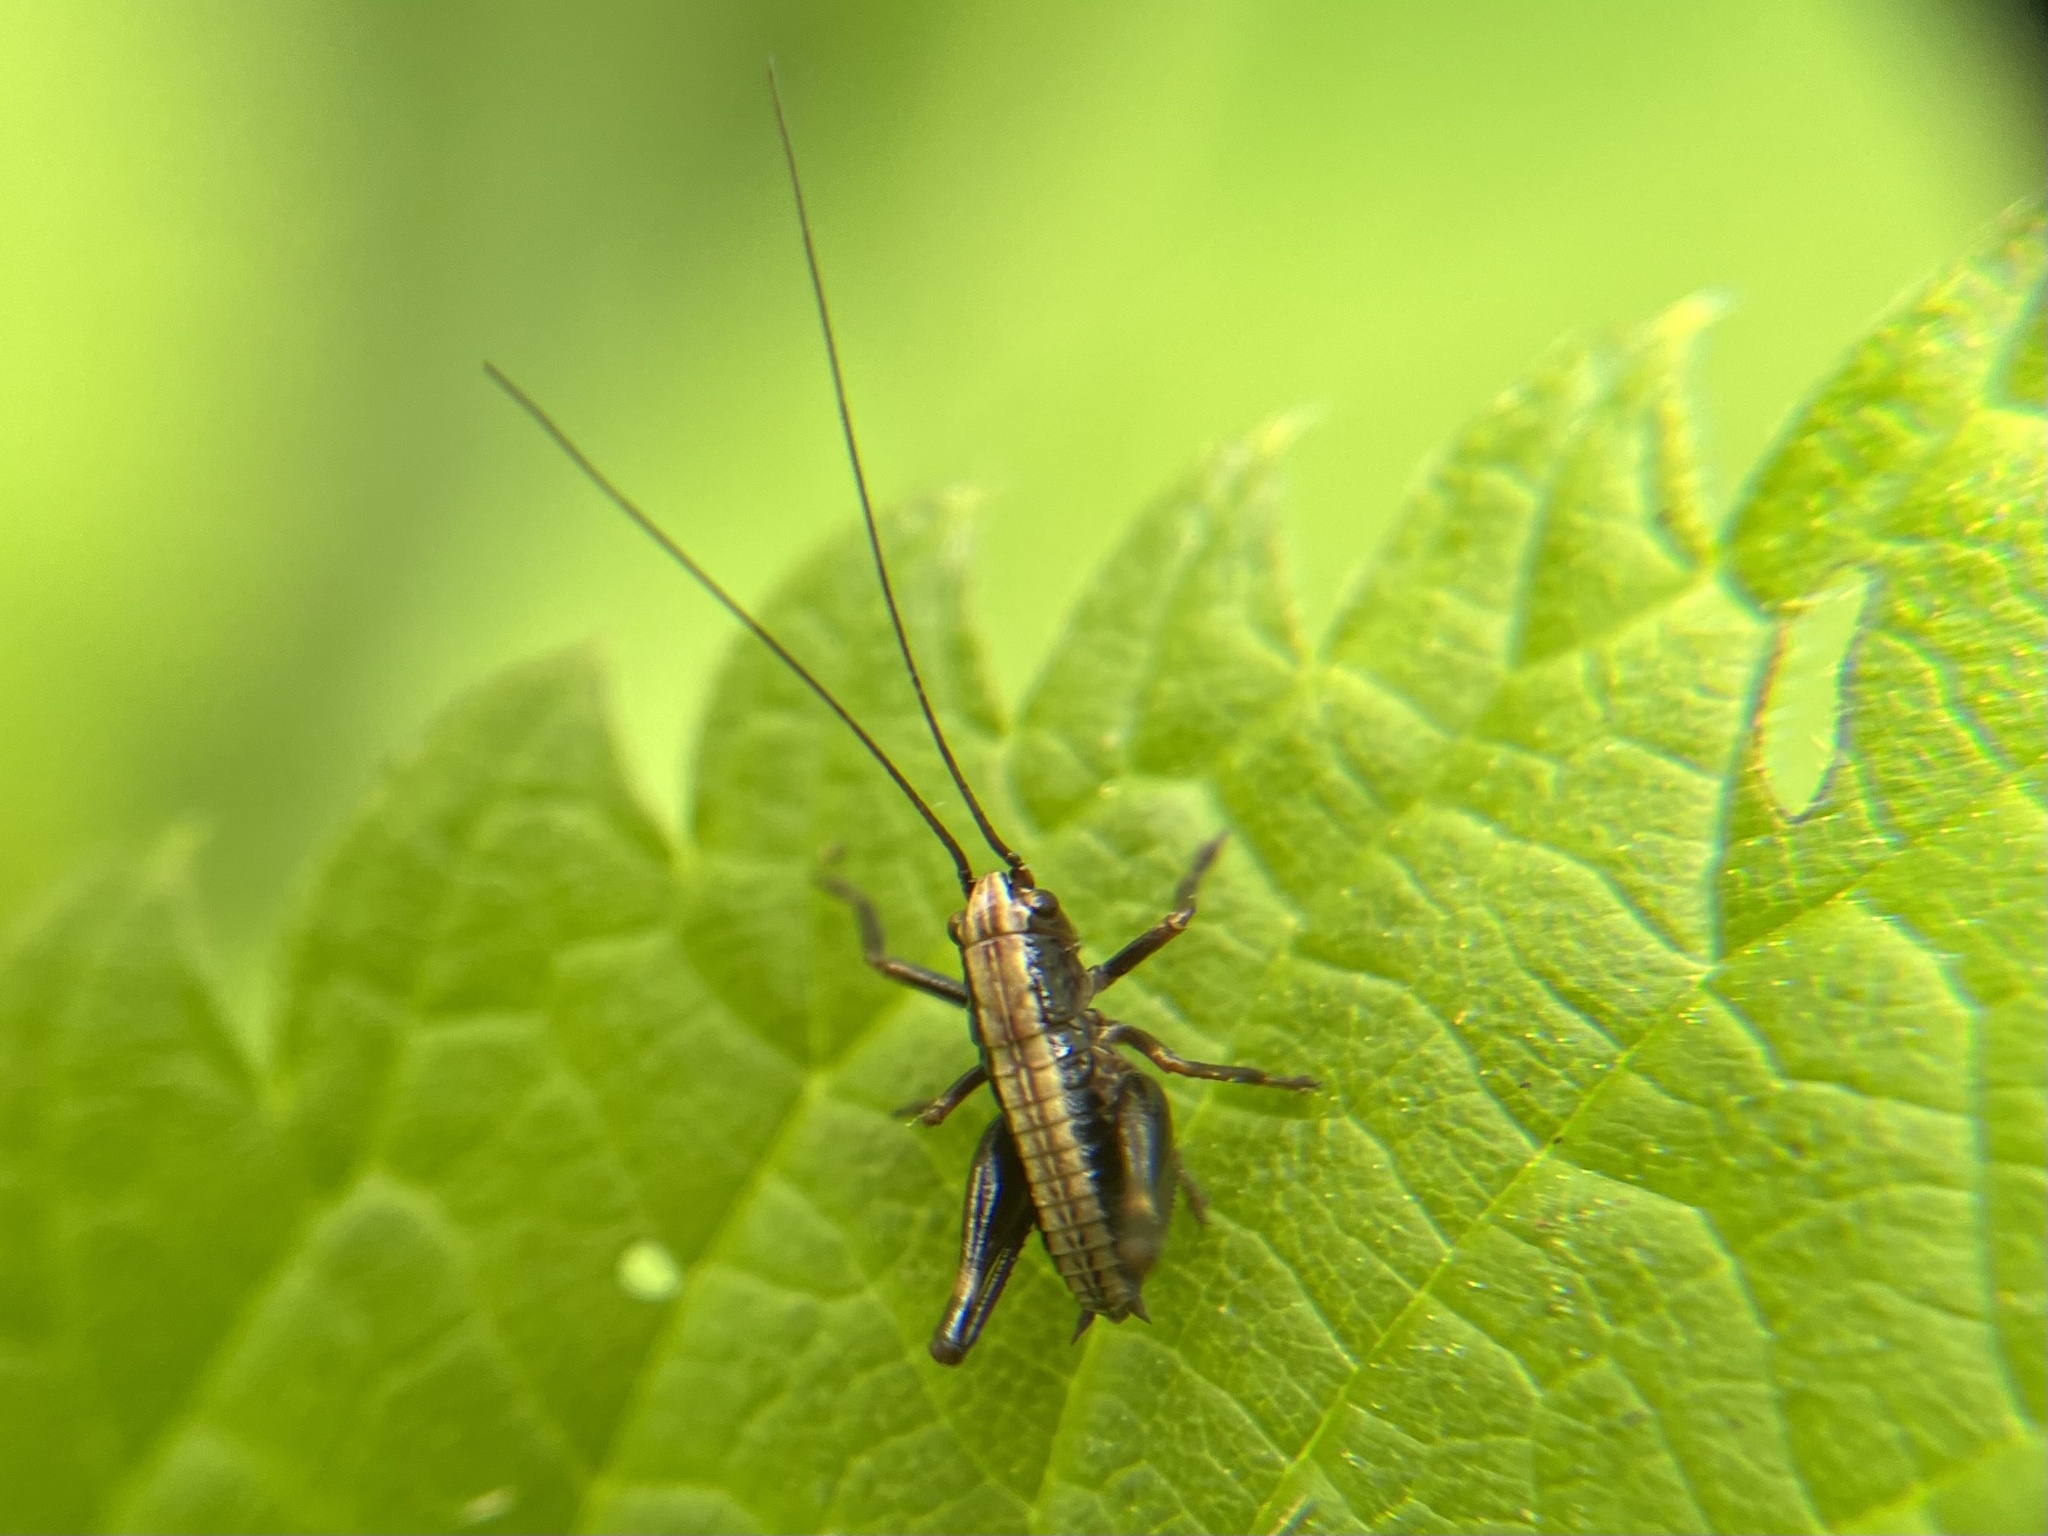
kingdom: Animalia
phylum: Arthropoda
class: Insecta
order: Orthoptera
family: Tettigoniidae
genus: Pholidoptera
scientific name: Pholidoptera griseoaptera
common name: Dark bush-cricket
